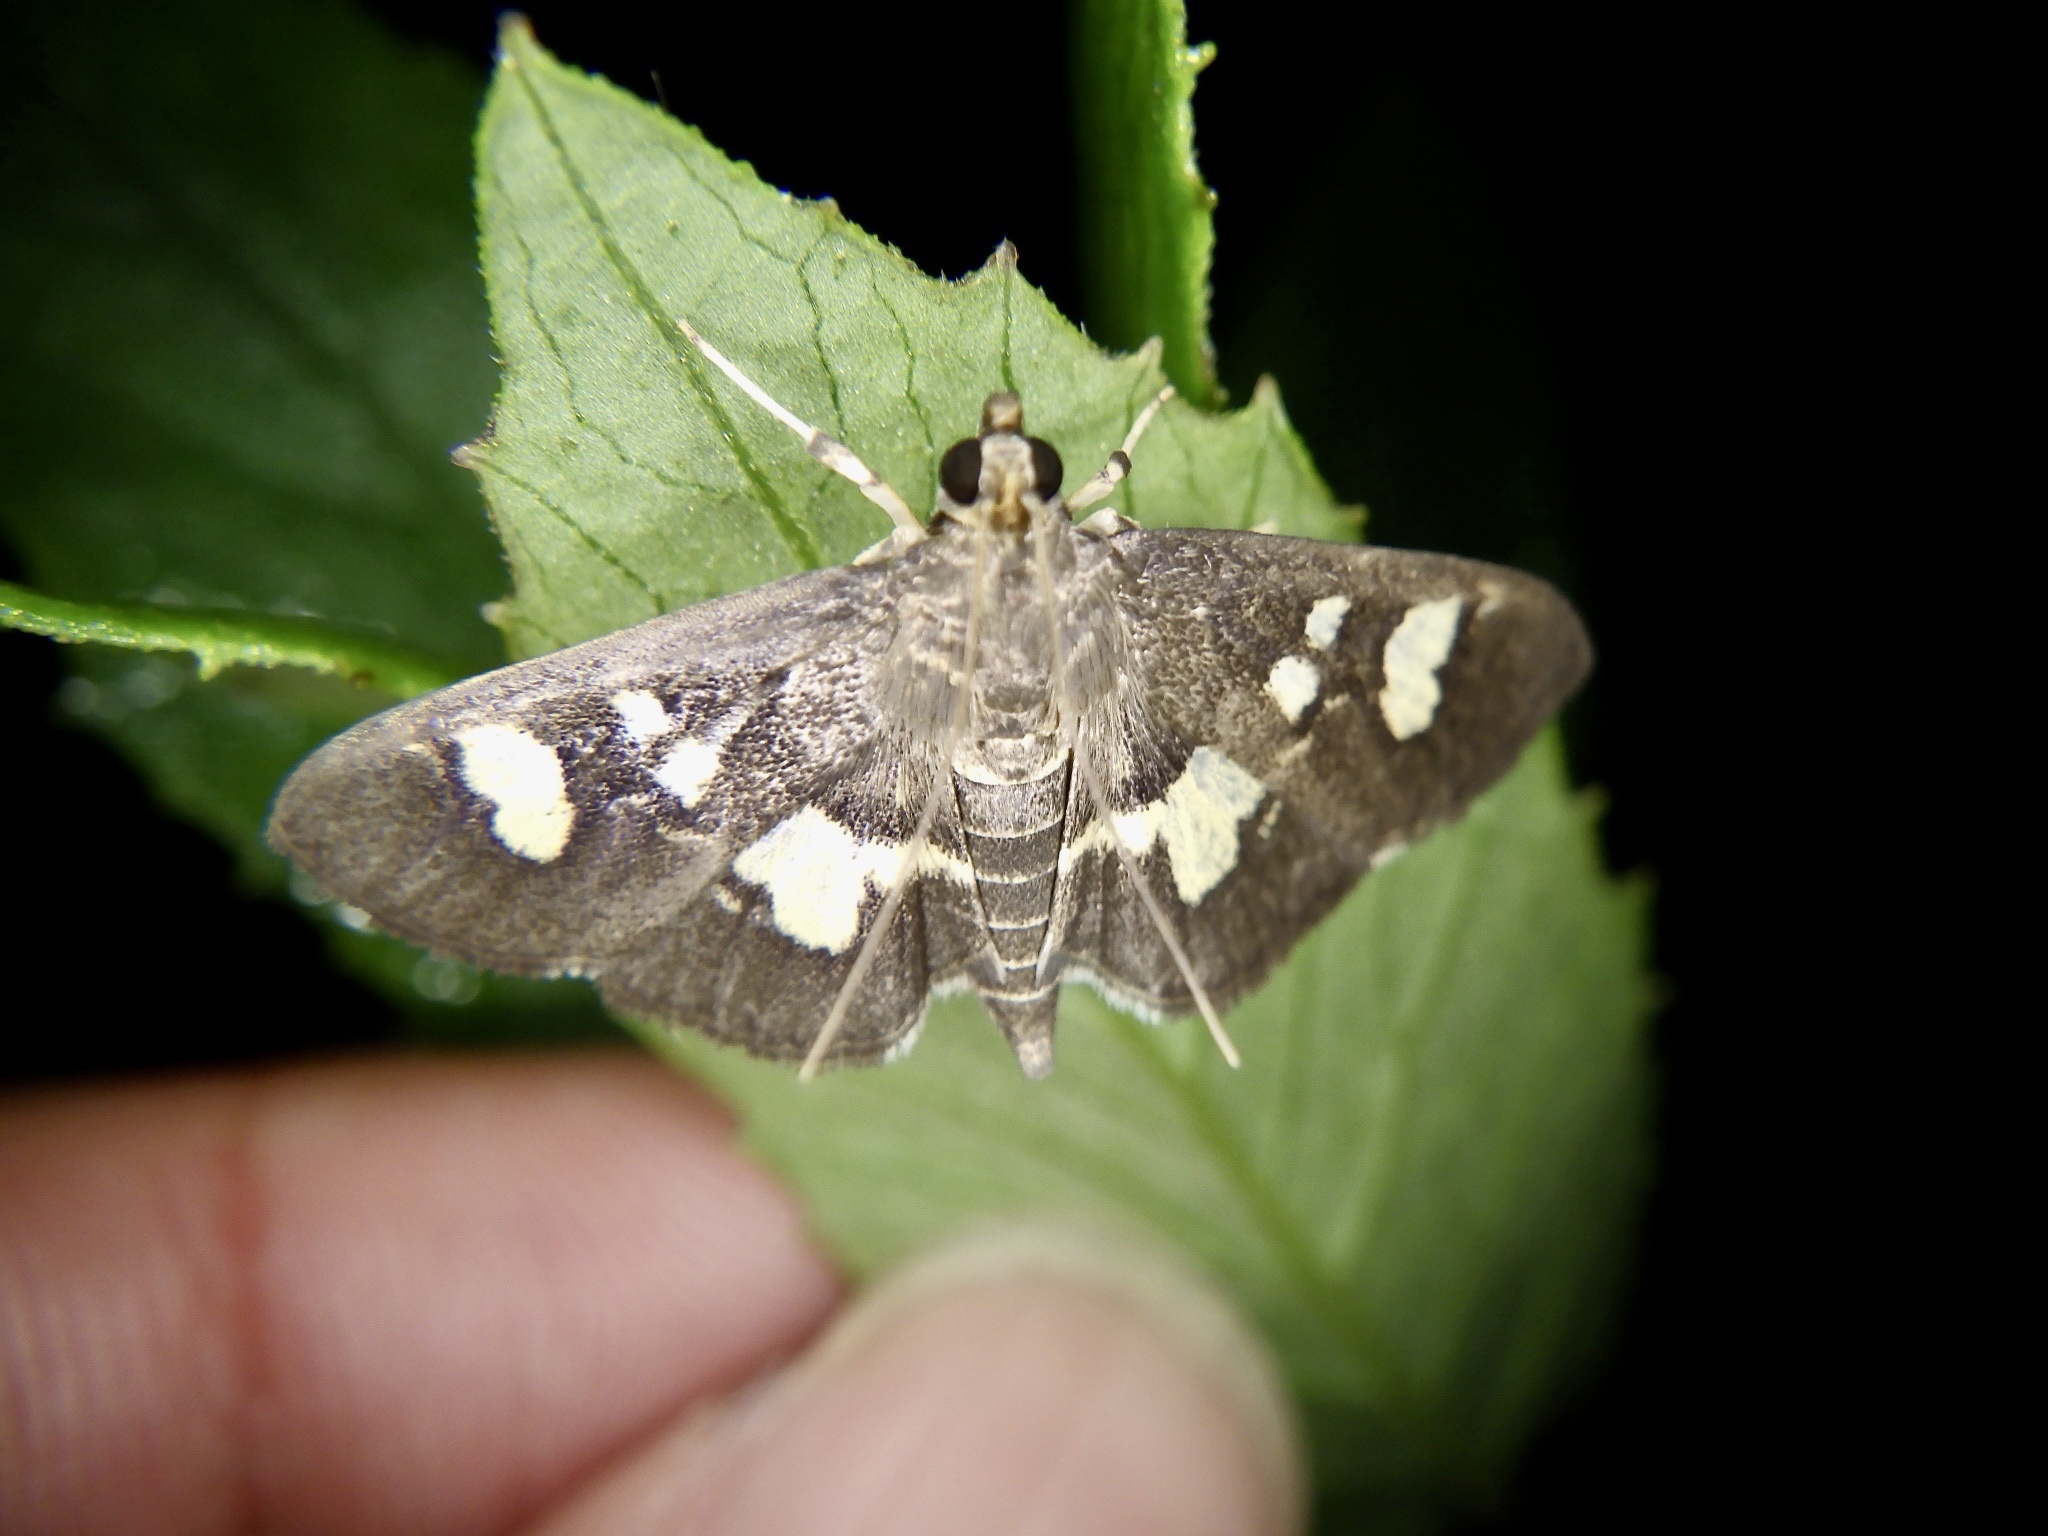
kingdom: Animalia
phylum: Arthropoda
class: Insecta
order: Lepidoptera
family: Crambidae
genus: Uresiphita
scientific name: Uresiphita tricolor
